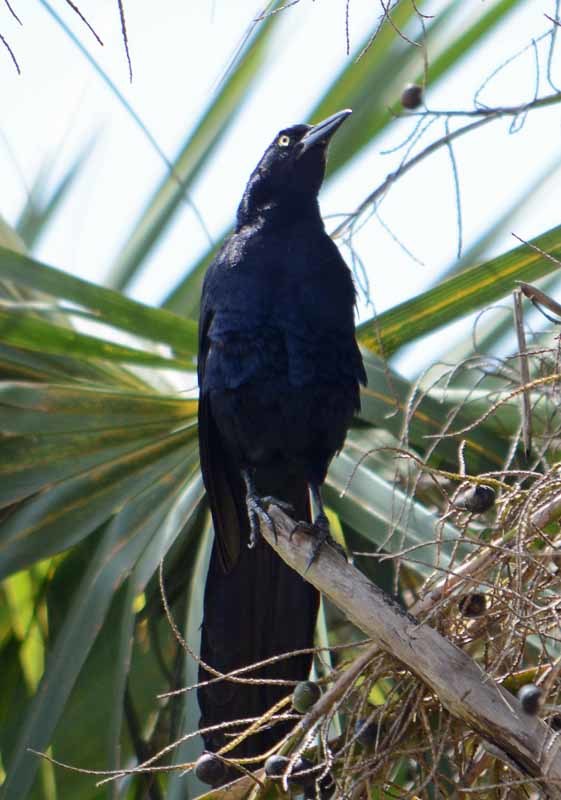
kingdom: Animalia
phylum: Chordata
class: Aves
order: Passeriformes
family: Icteridae
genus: Quiscalus
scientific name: Quiscalus mexicanus
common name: Great-tailed grackle
